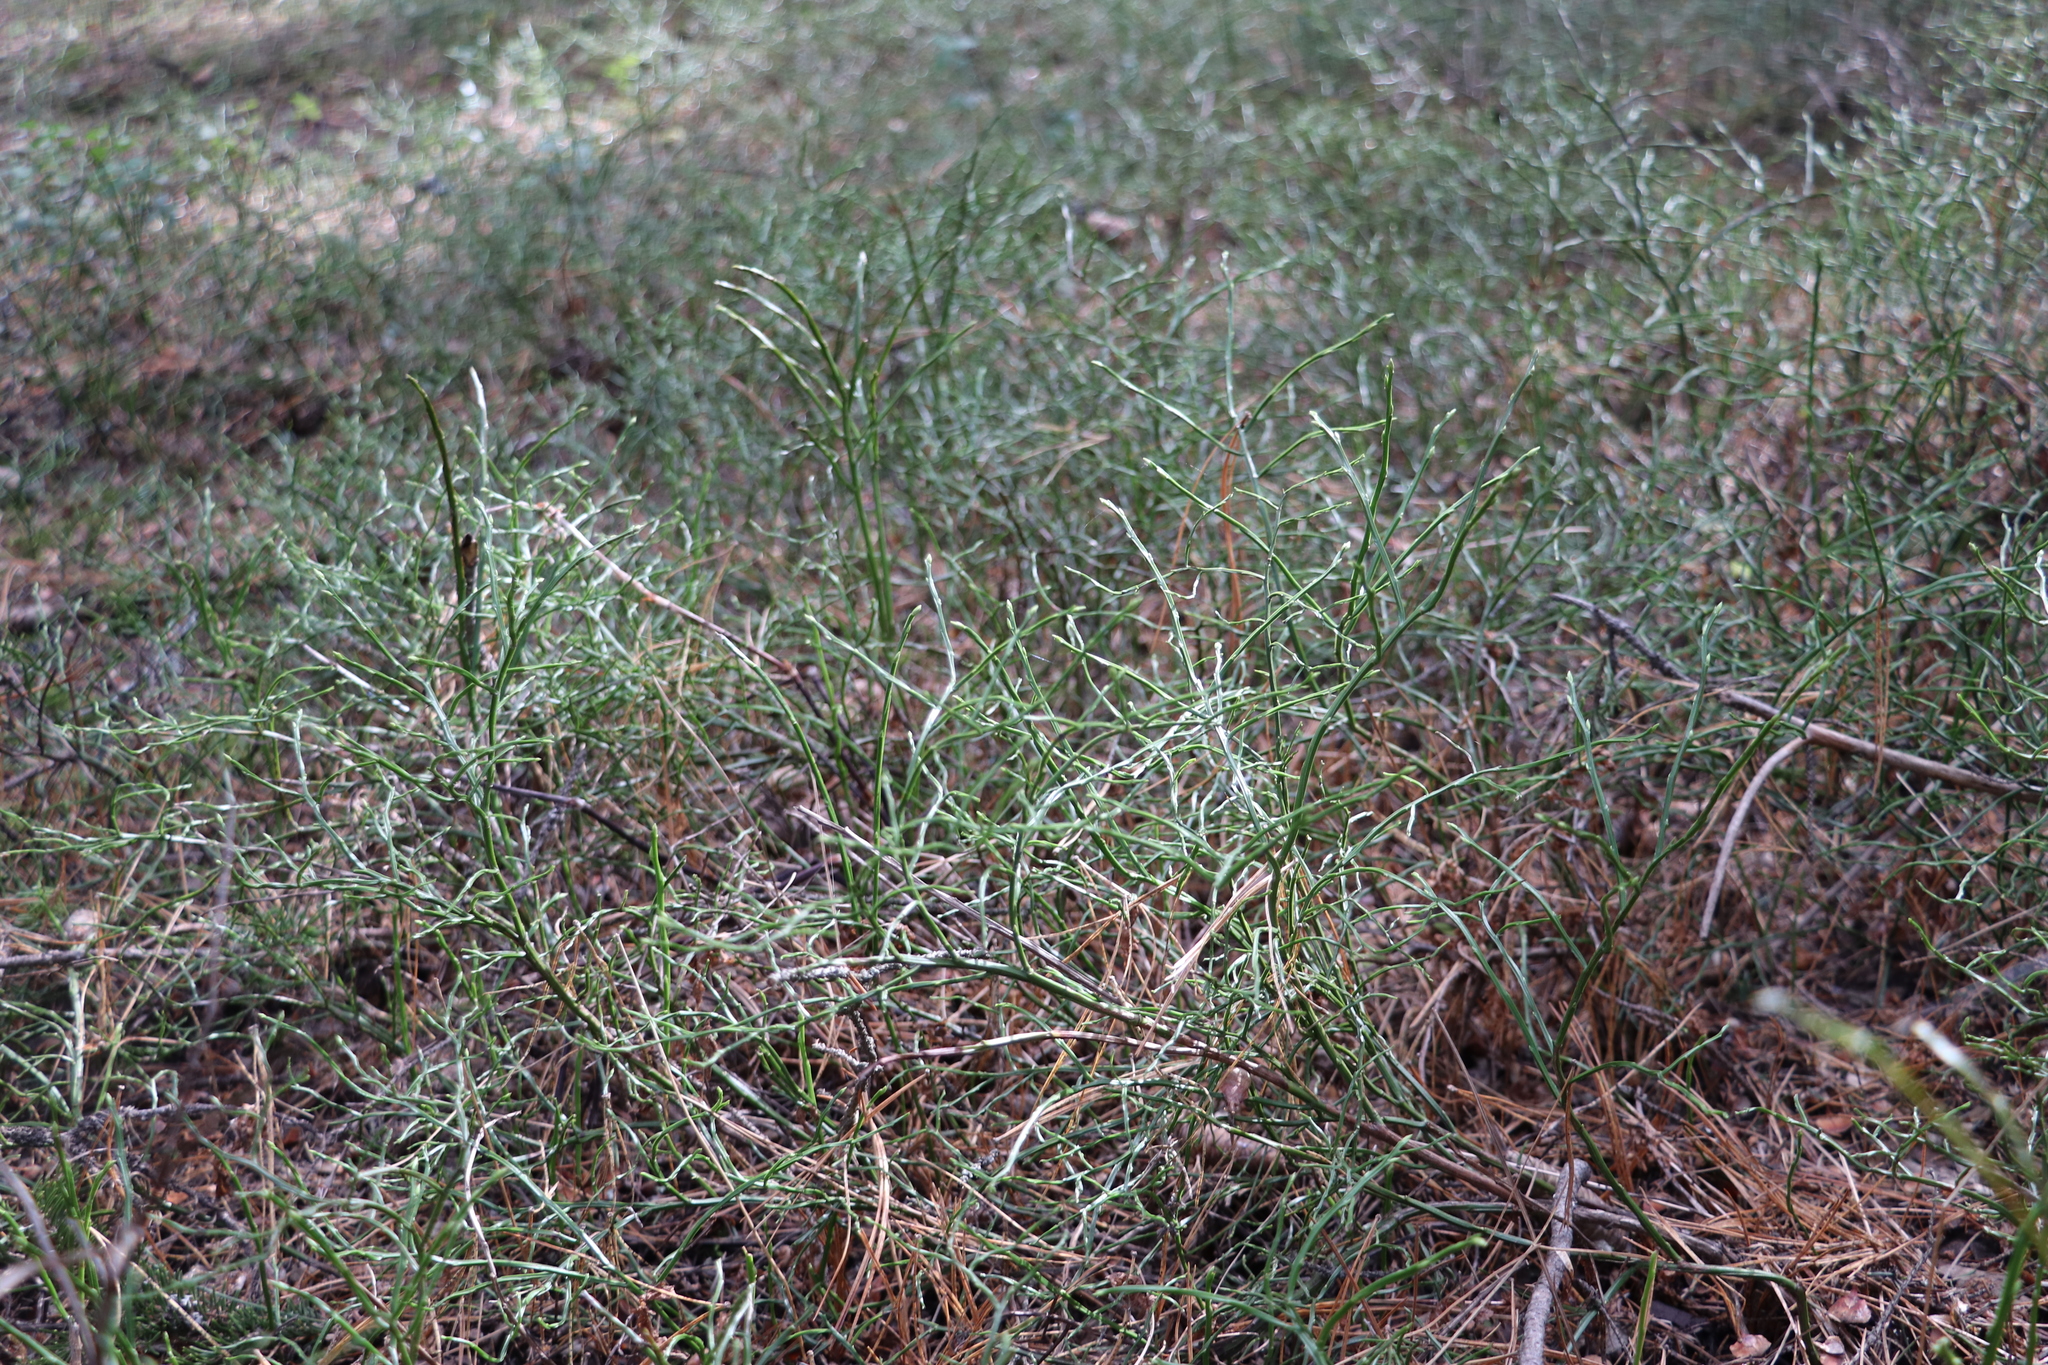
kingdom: Plantae
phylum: Tracheophyta
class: Magnoliopsida
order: Ericales
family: Ericaceae
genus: Vaccinium
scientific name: Vaccinium myrtillus
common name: Bilberry
